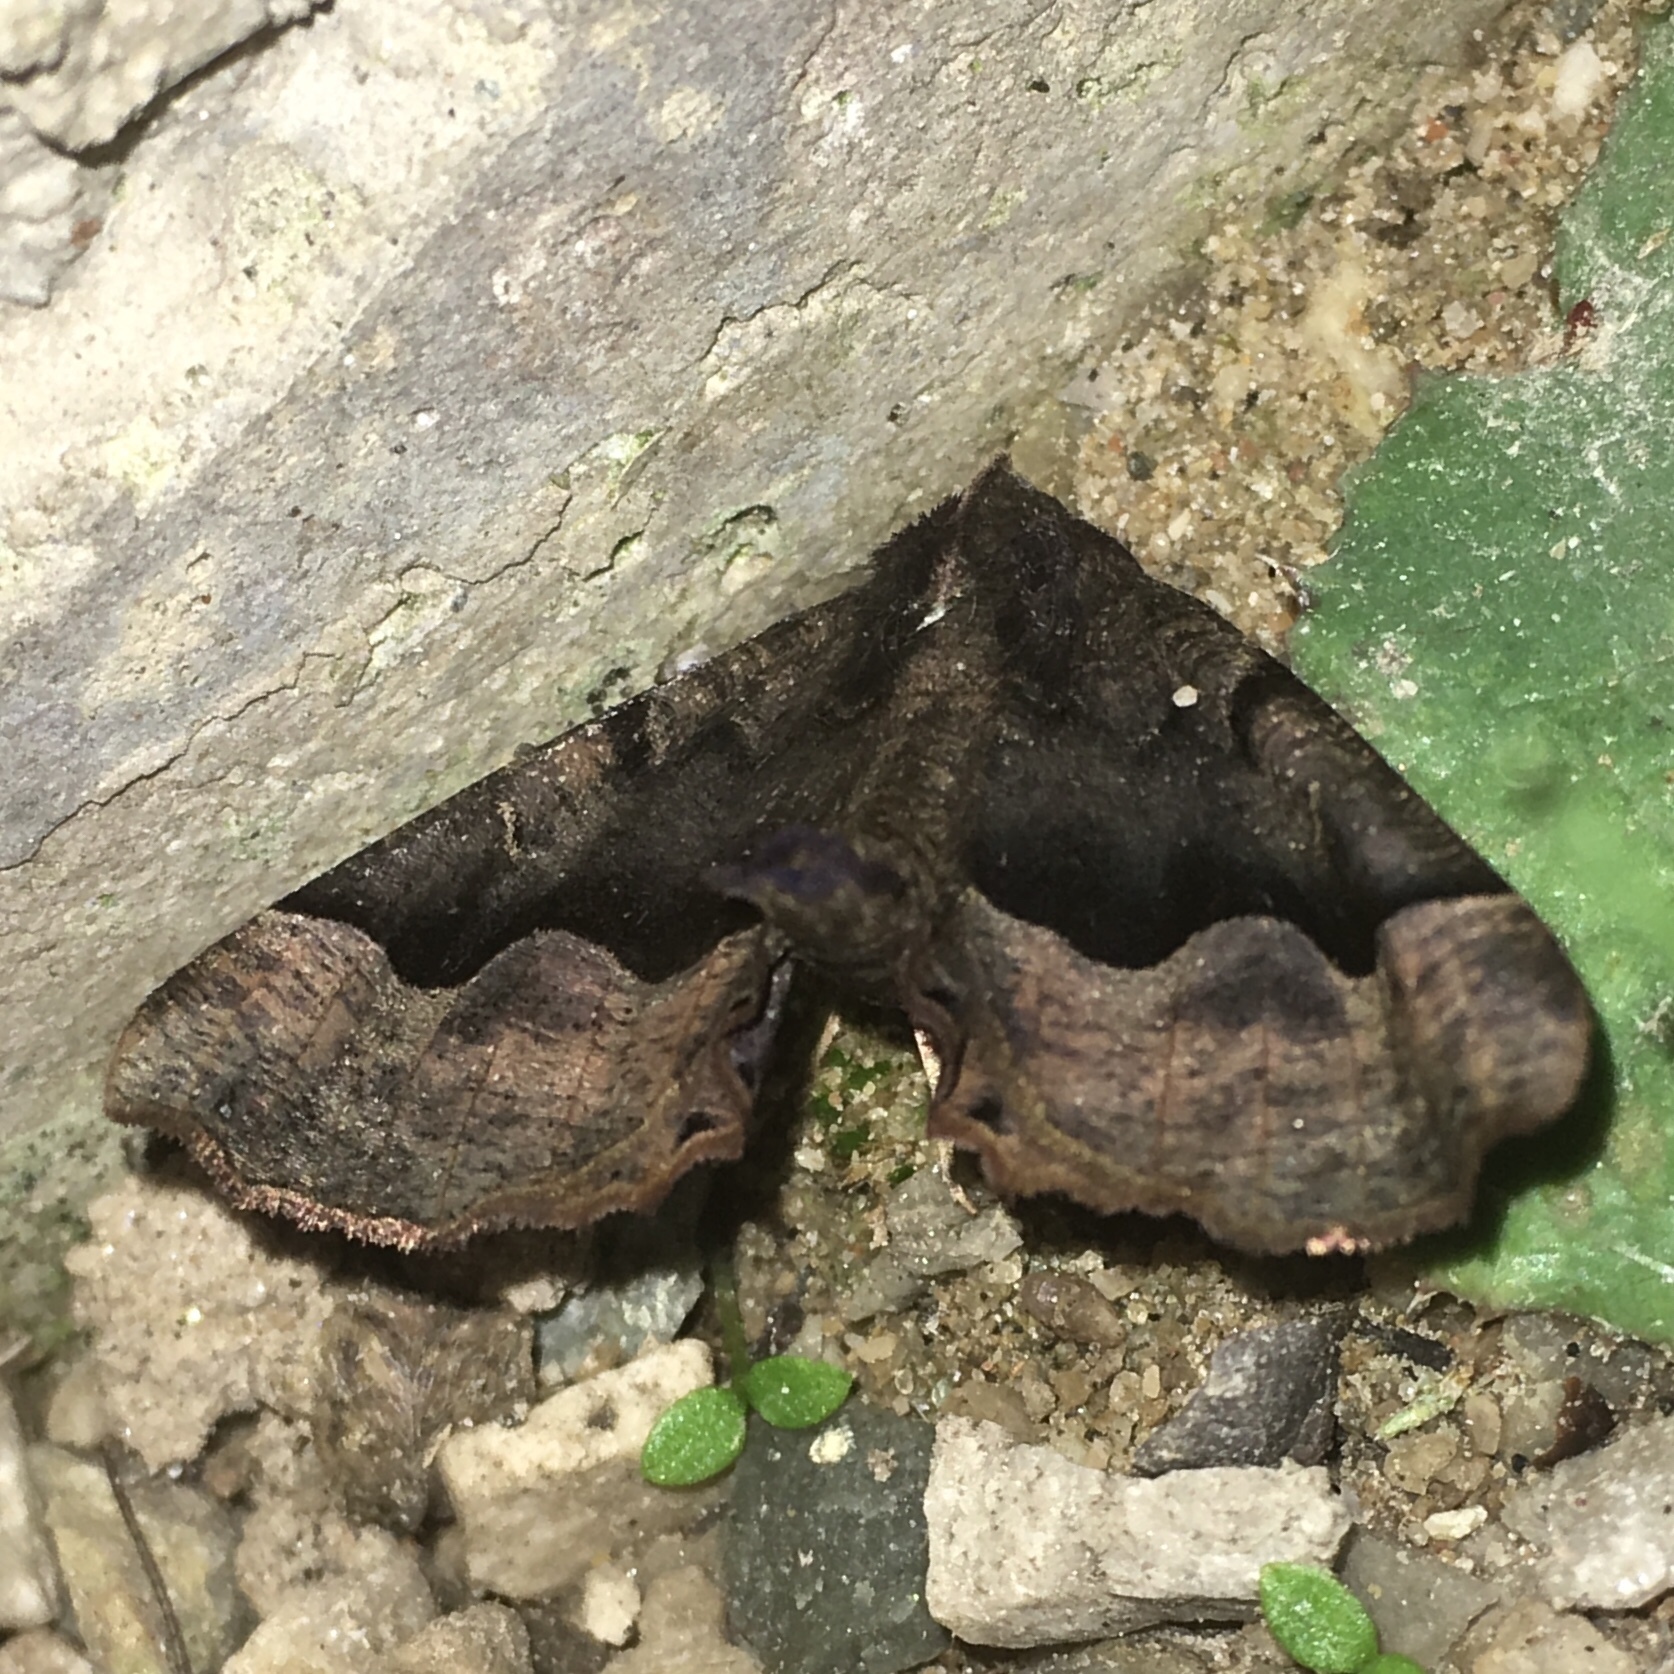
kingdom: Animalia
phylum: Arthropoda
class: Insecta
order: Lepidoptera
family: Geometridae
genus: Pero
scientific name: Pero honestaria
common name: Honest pero
